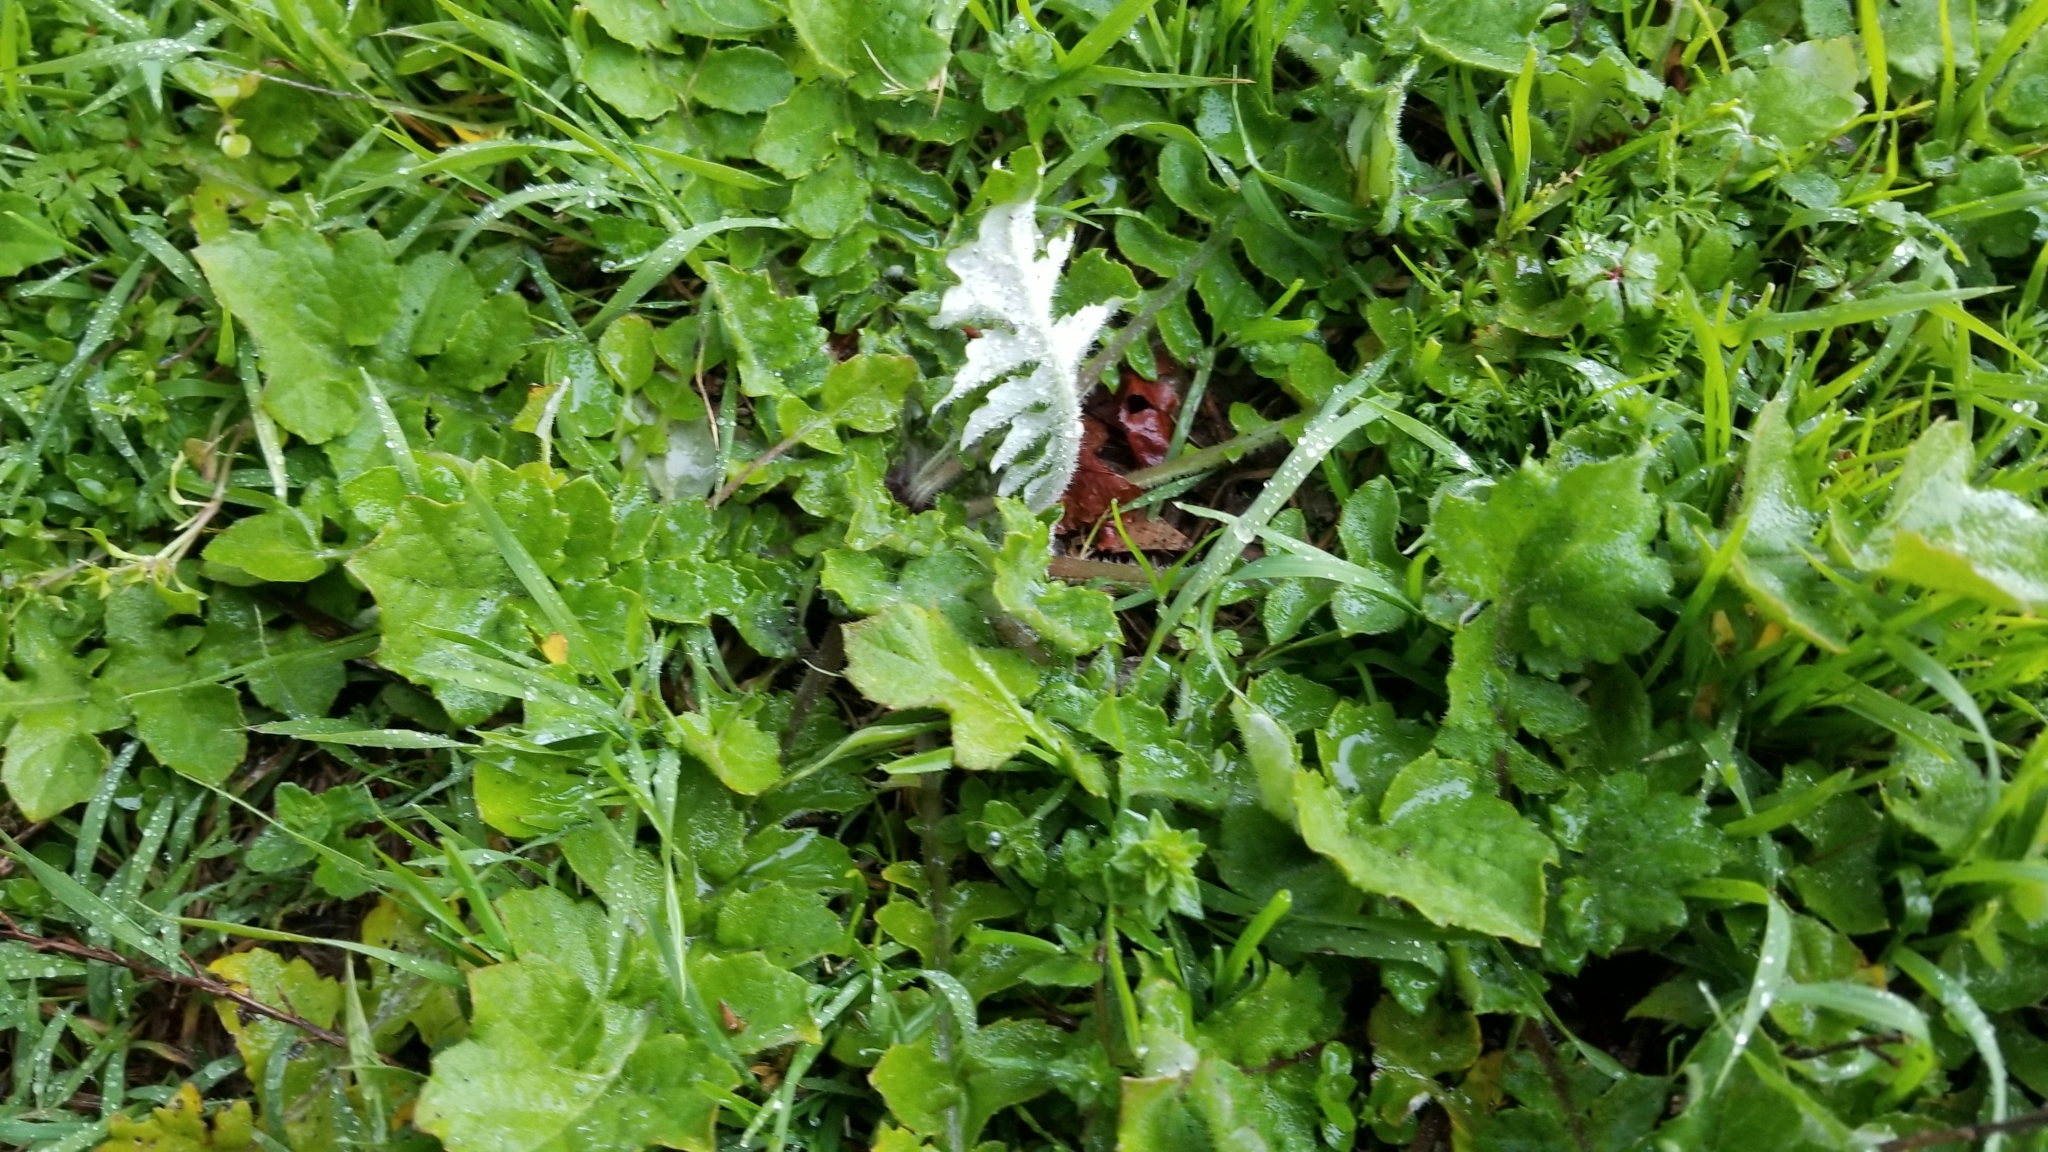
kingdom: Plantae
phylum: Tracheophyta
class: Magnoliopsida
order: Asterales
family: Asteraceae
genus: Arctotheca
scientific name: Arctotheca calendula
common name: Capeweed
